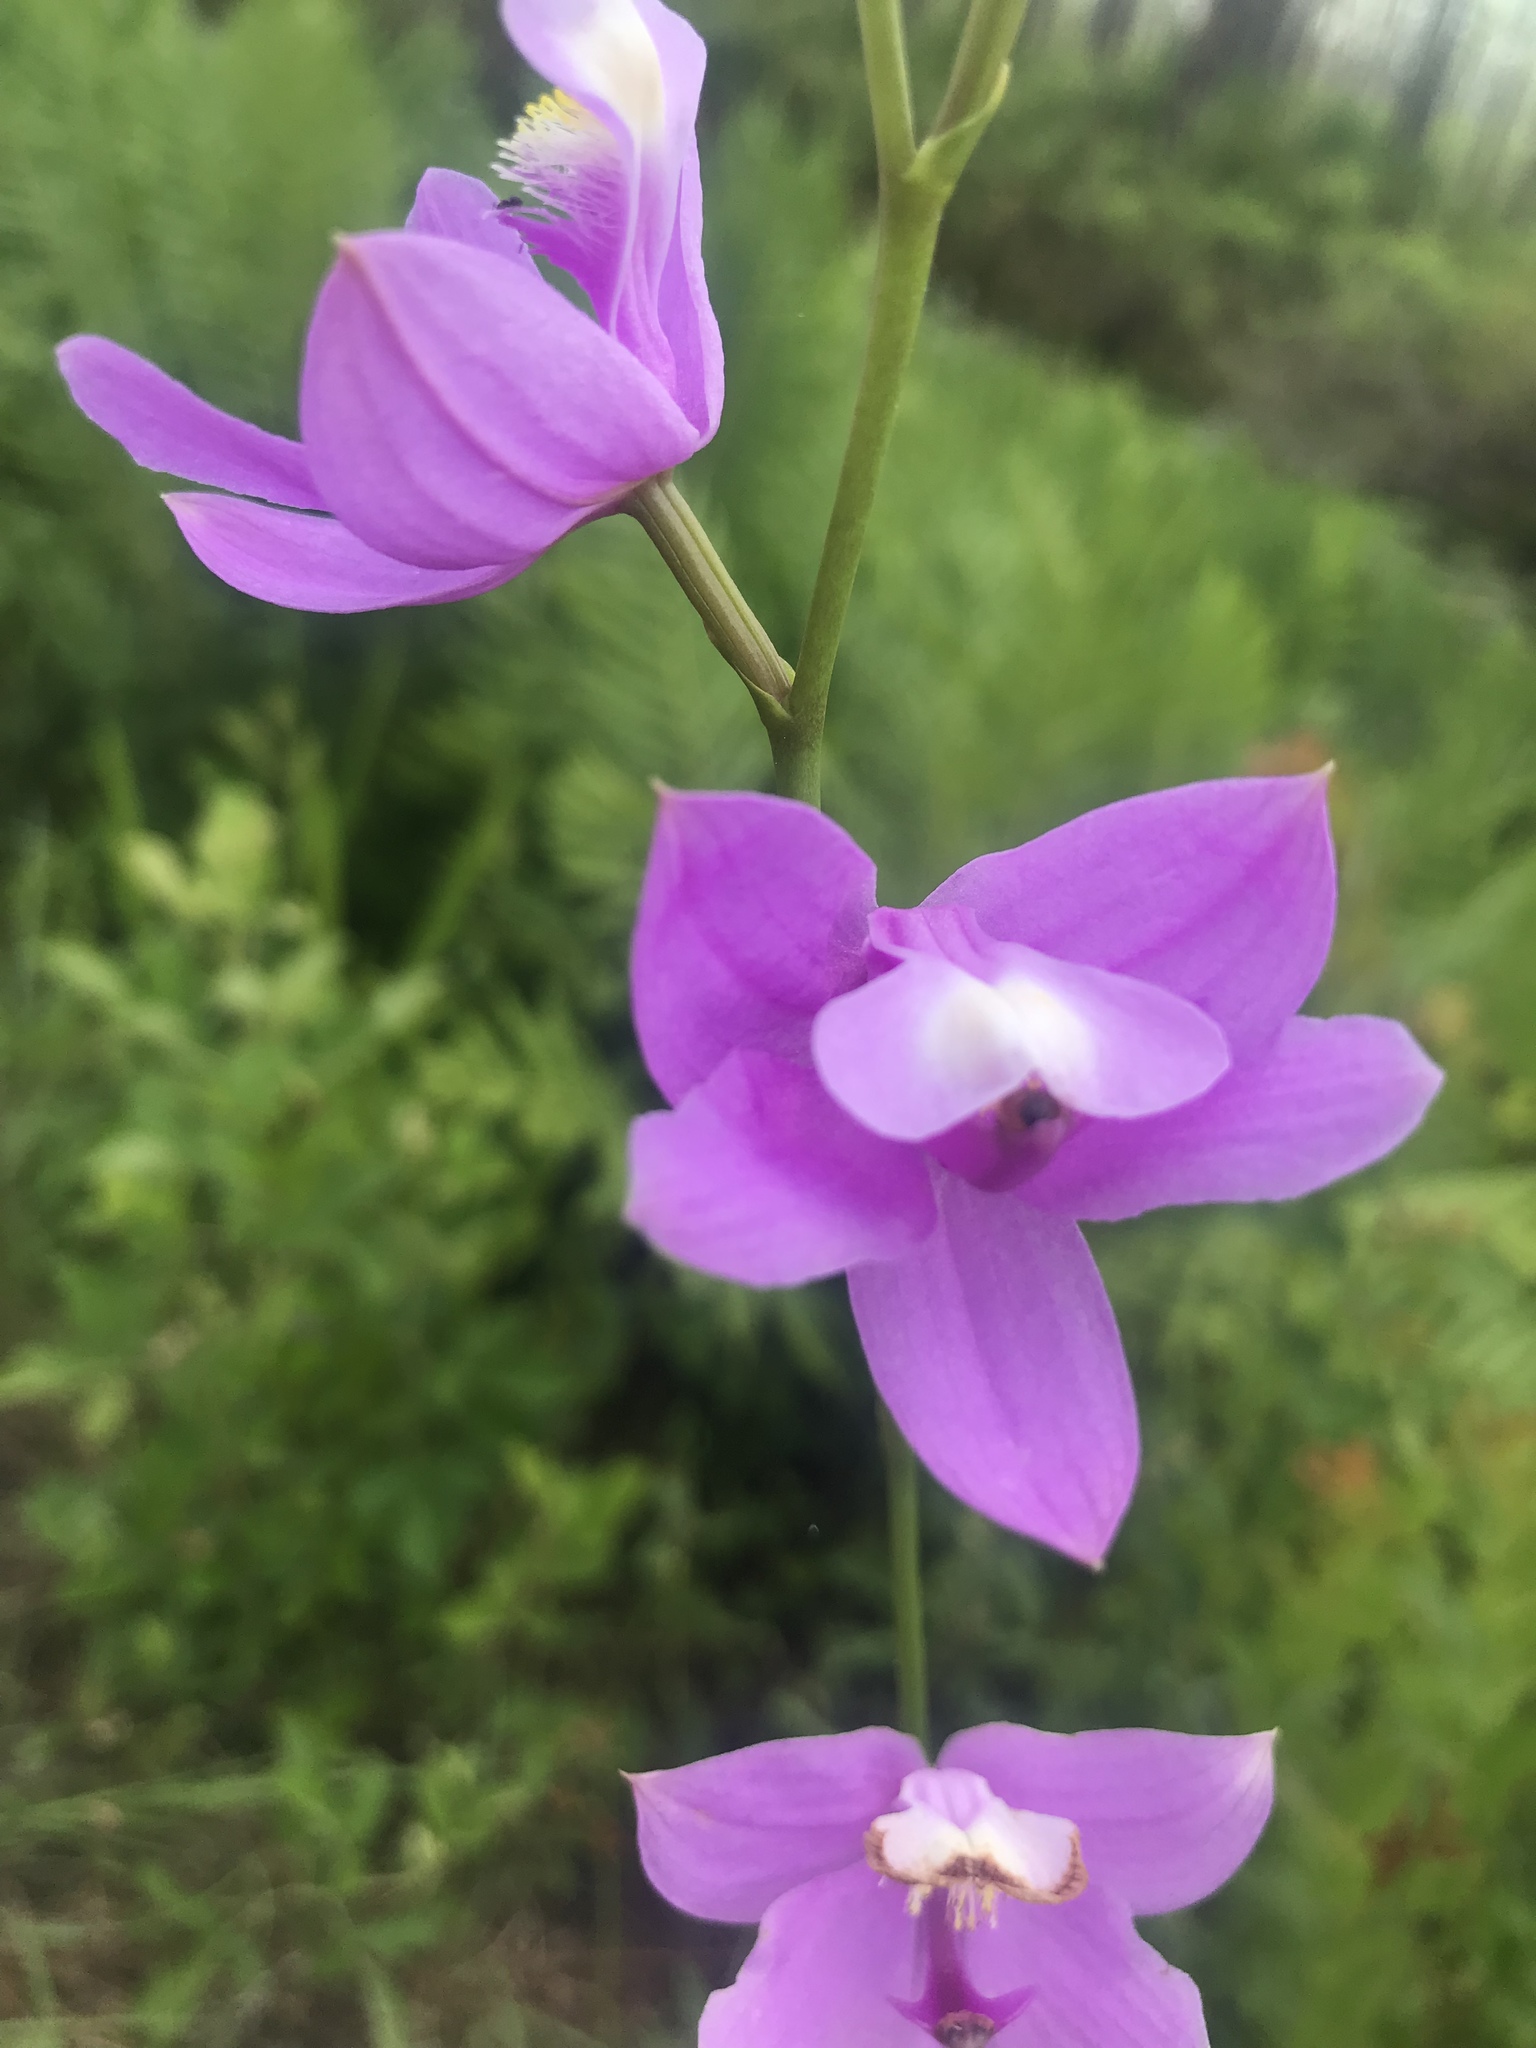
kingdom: Plantae
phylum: Tracheophyta
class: Liliopsida
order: Asparagales
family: Orchidaceae
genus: Calopogon
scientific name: Calopogon tuberosus
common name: Grass-pink
